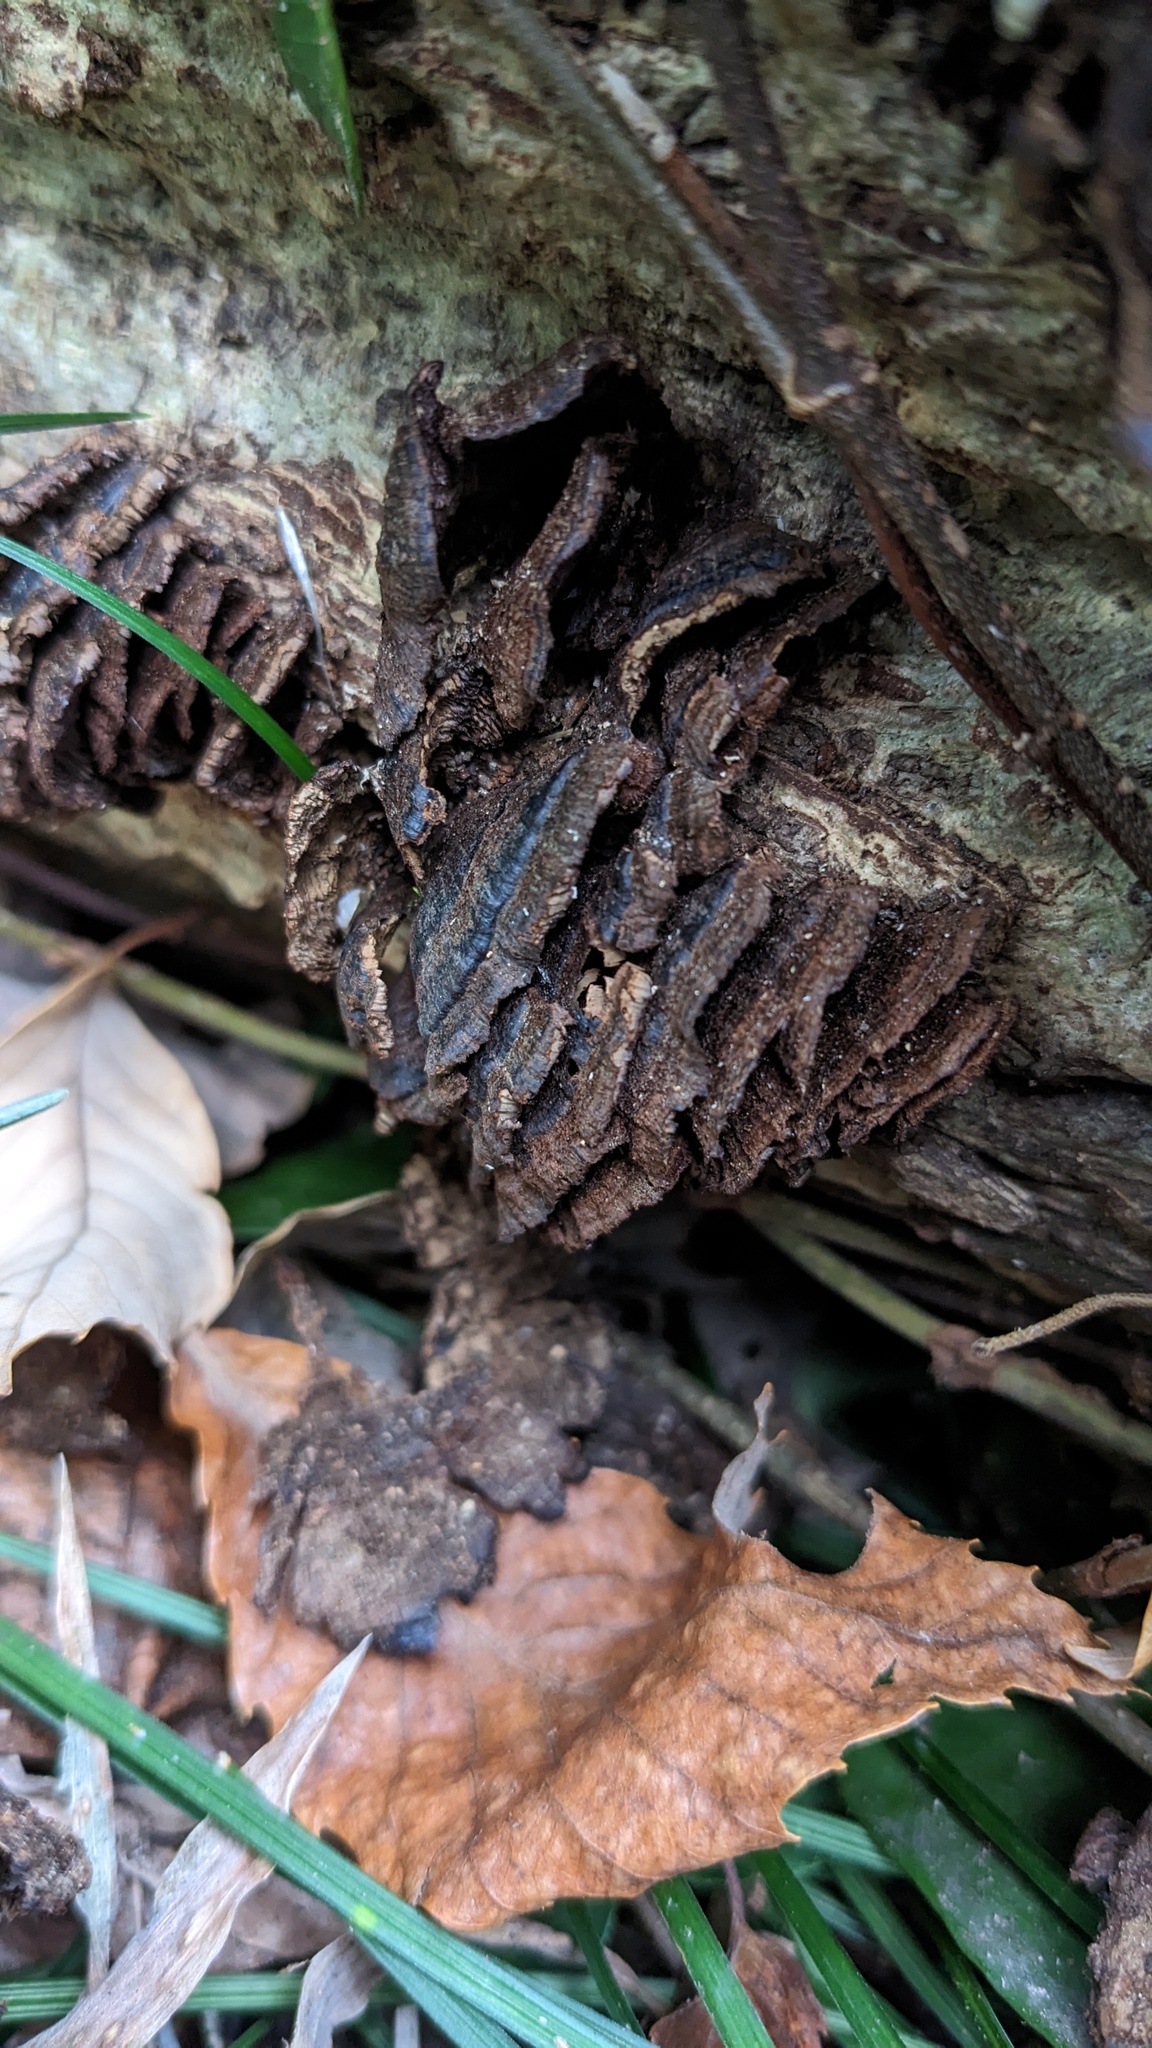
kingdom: Fungi
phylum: Basidiomycota
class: Agaricomycetes
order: Hymenochaetales
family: Hymenochaetaceae
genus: Hymenochaete
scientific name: Hymenochaete cyclolamellata
